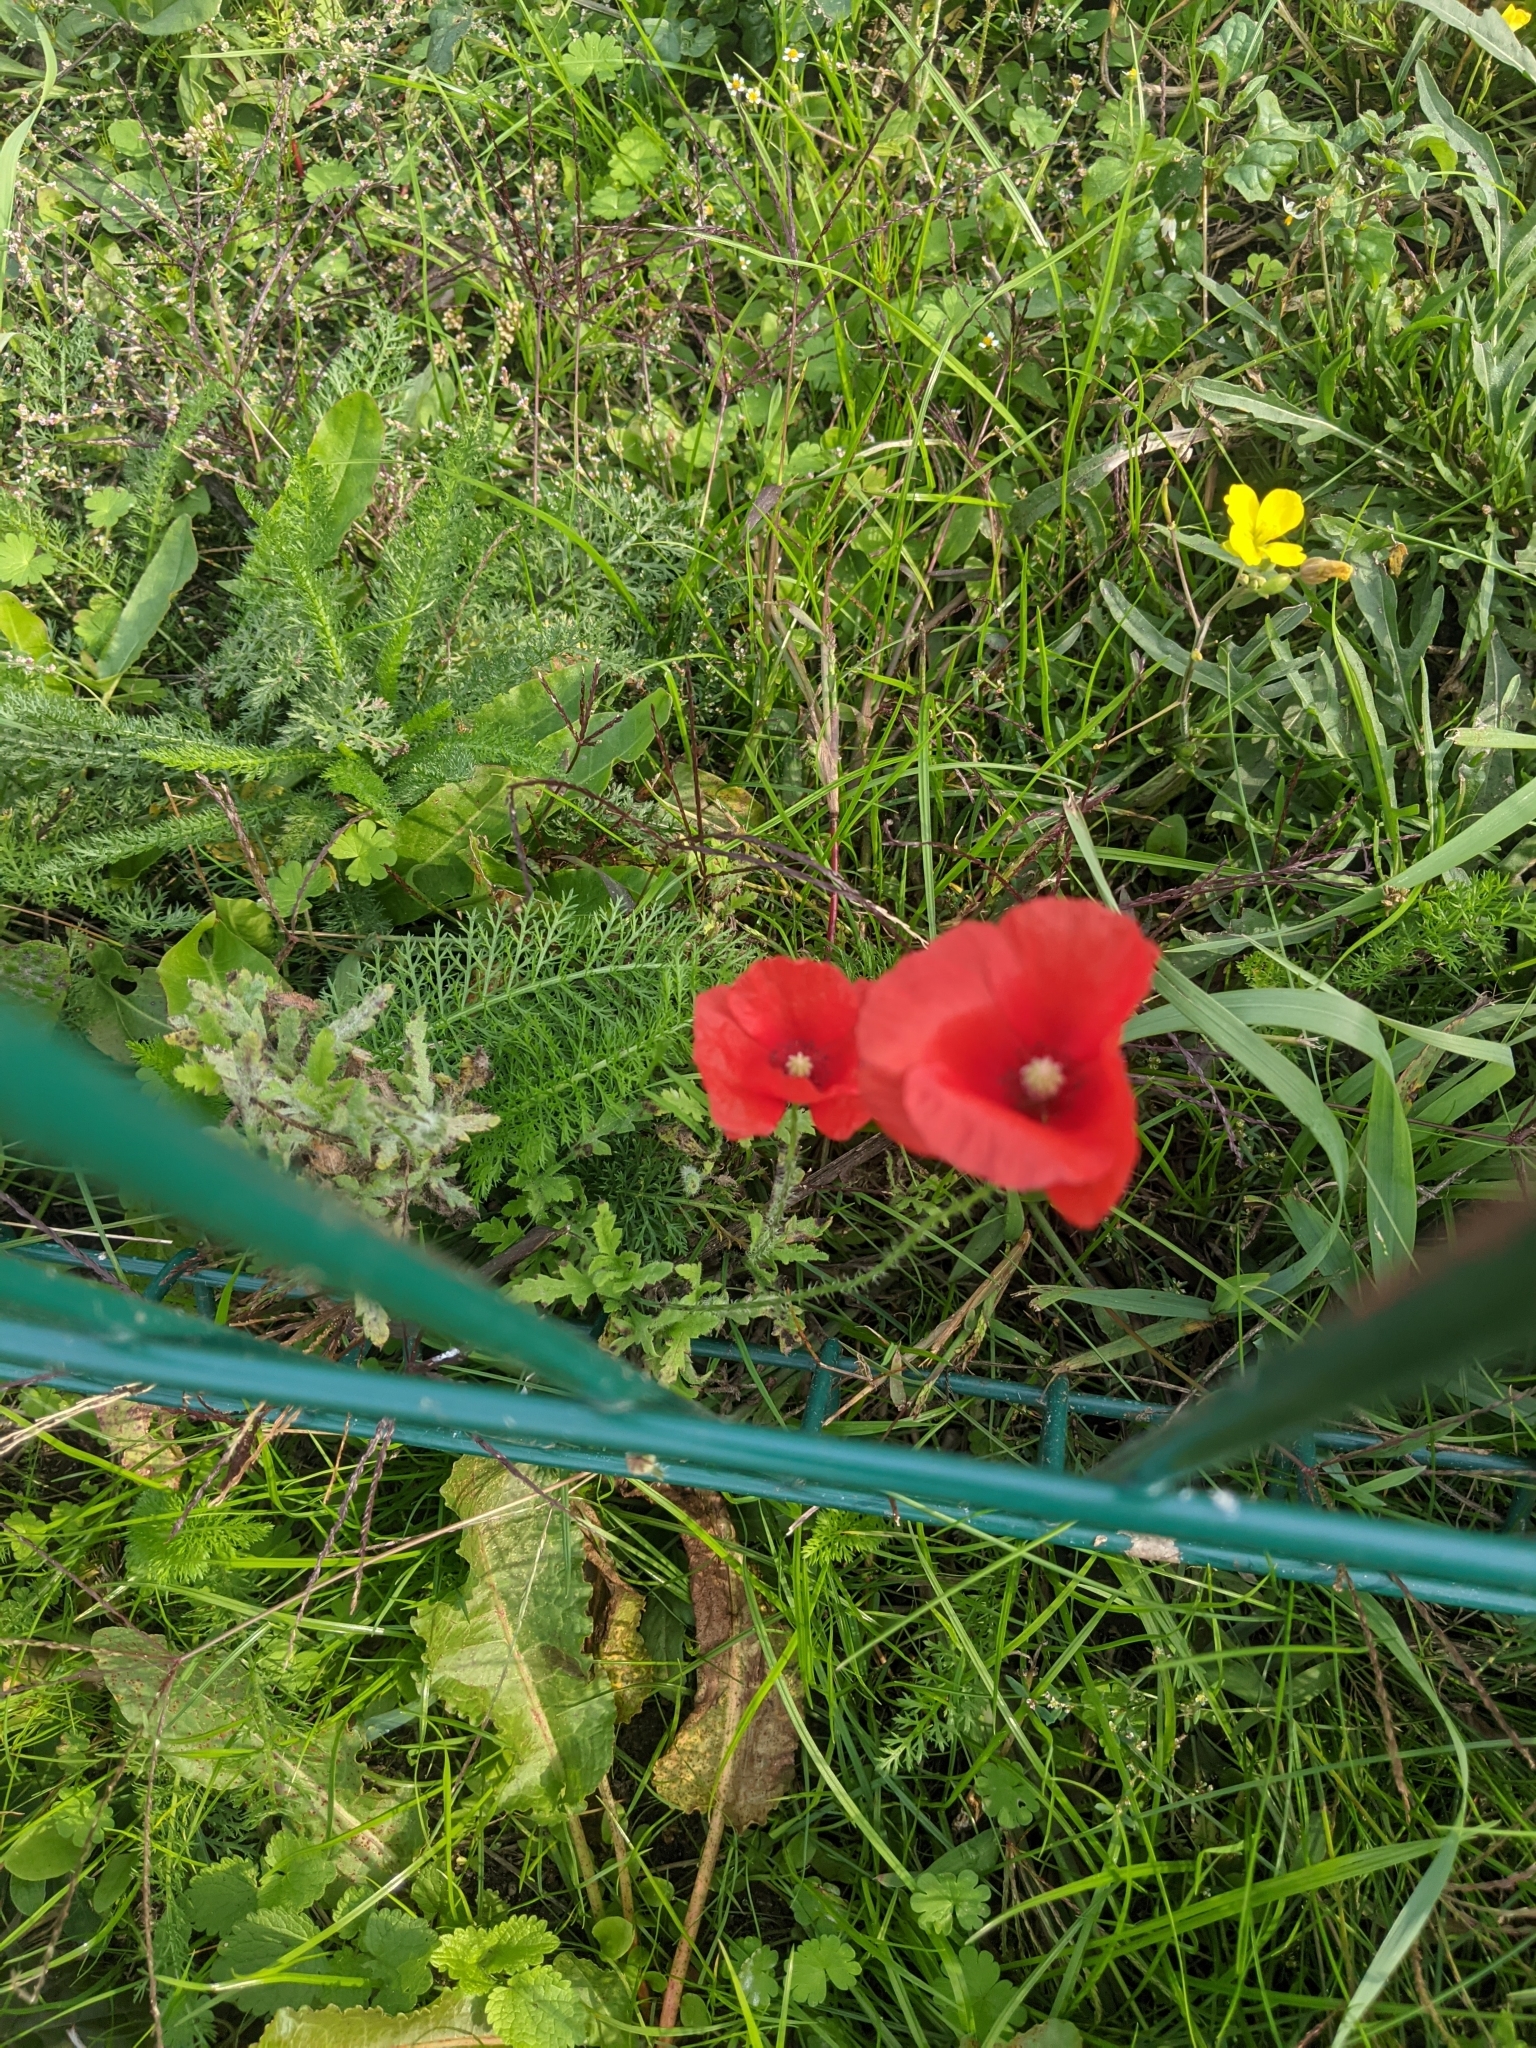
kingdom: Plantae
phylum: Tracheophyta
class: Magnoliopsida
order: Ranunculales
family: Papaveraceae
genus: Papaver
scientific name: Papaver rhoeas
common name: Corn poppy
